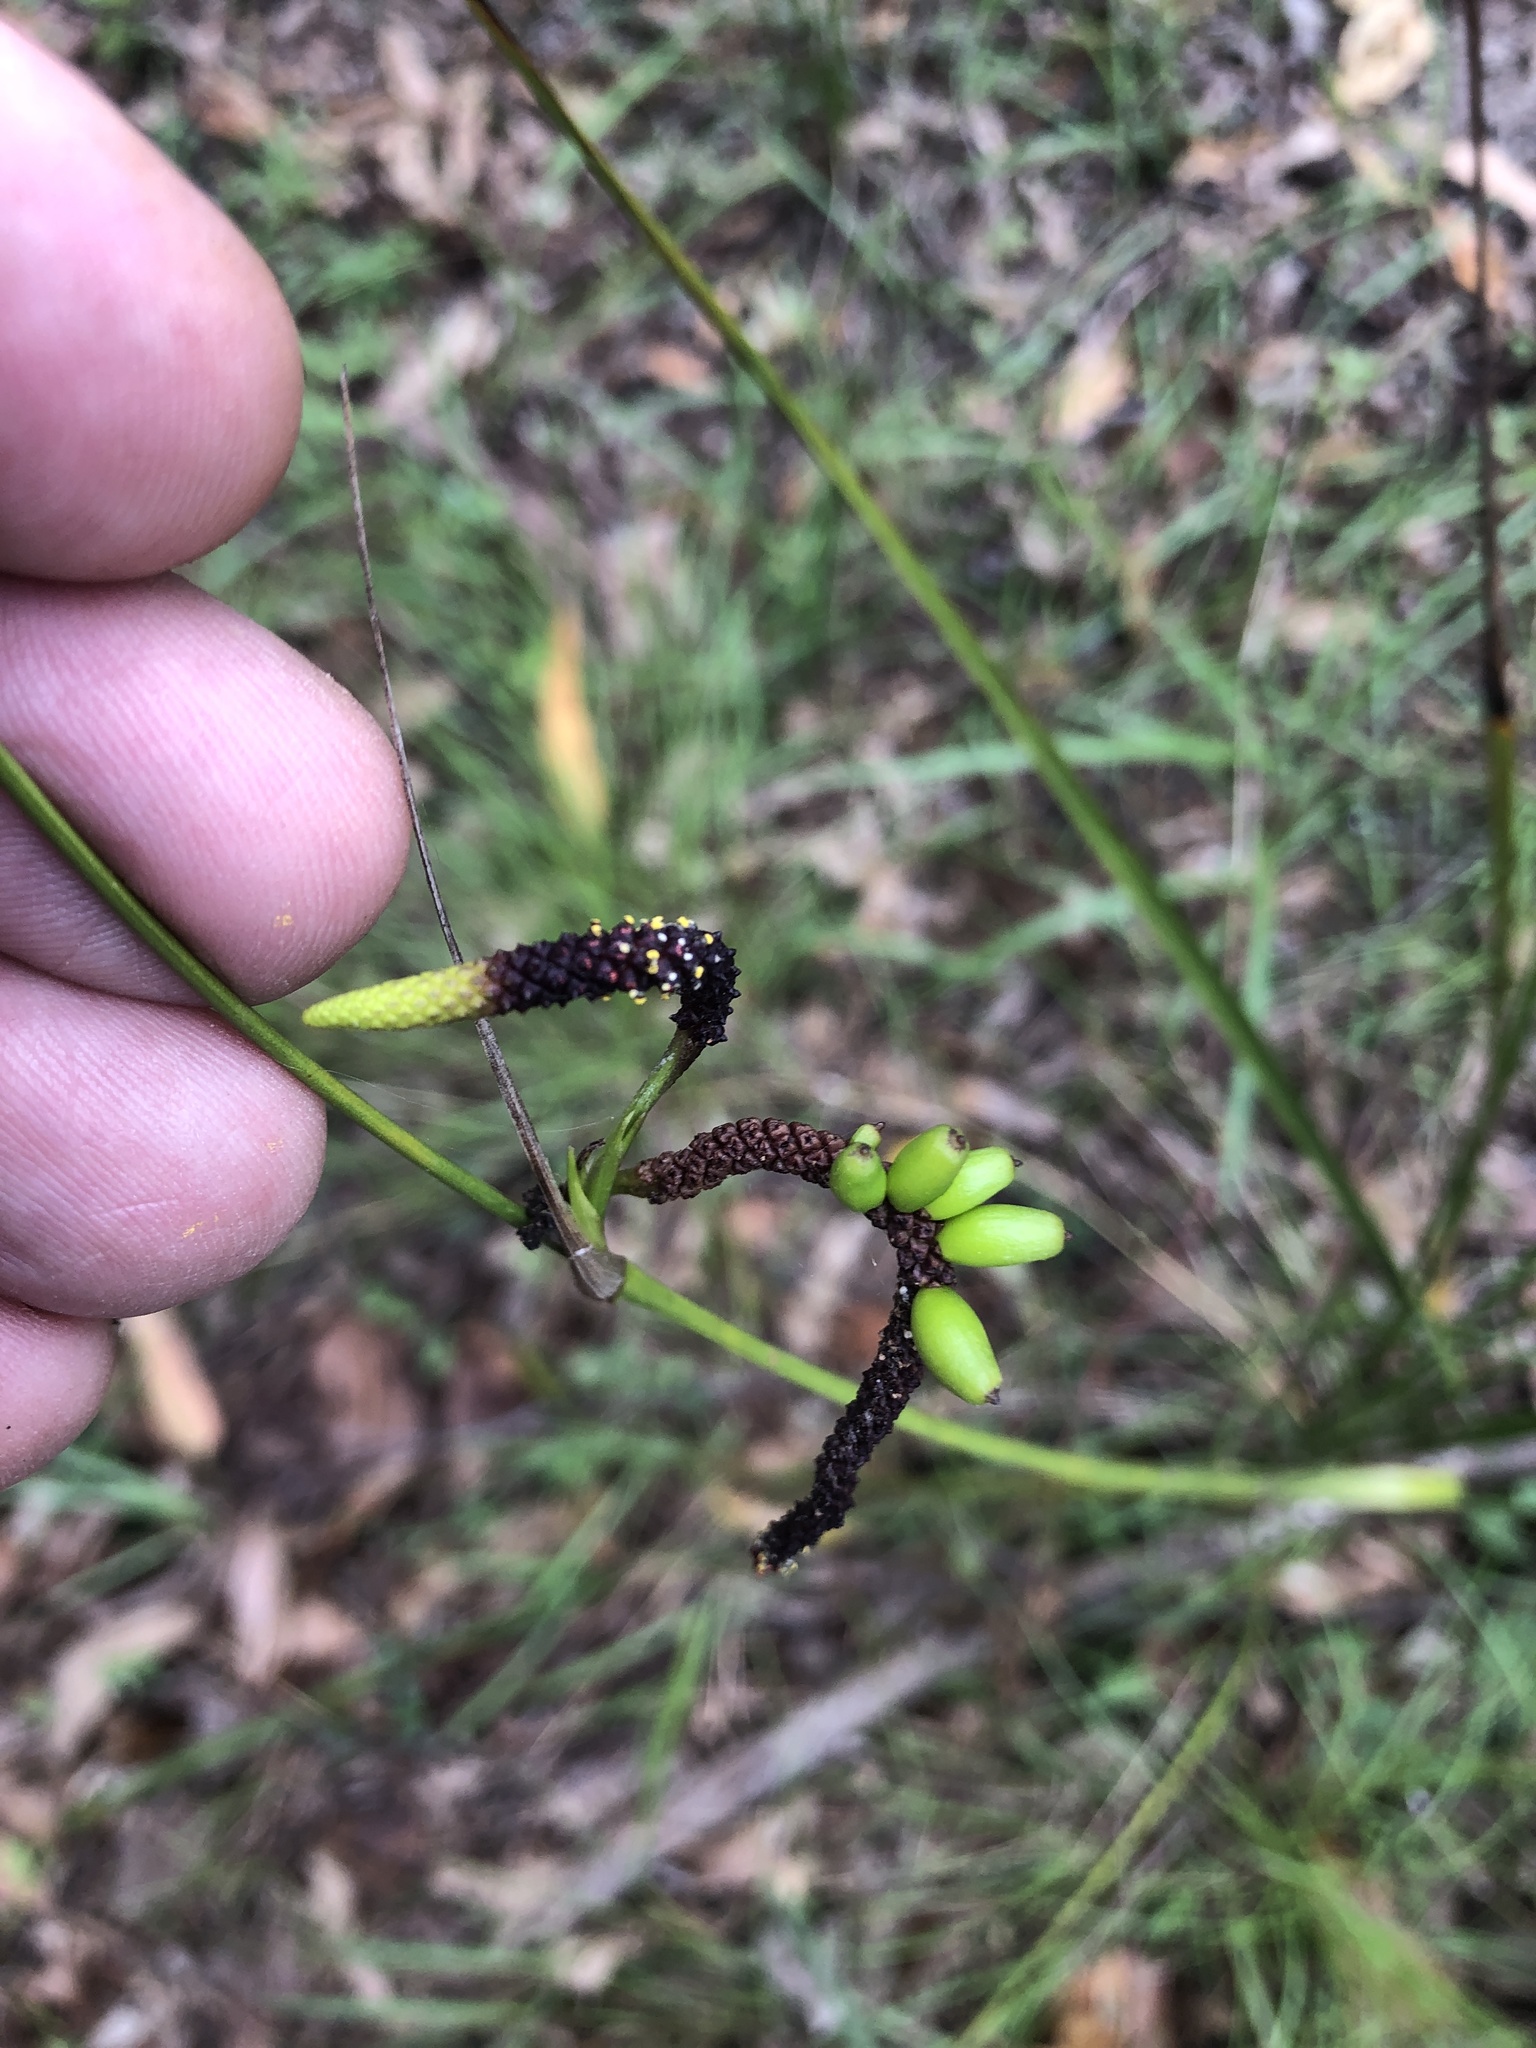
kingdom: Plantae
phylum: Tracheophyta
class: Liliopsida
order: Alismatales
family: Araceae
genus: Gymnostachys
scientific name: Gymnostachys anceps
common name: Settler's-flax
